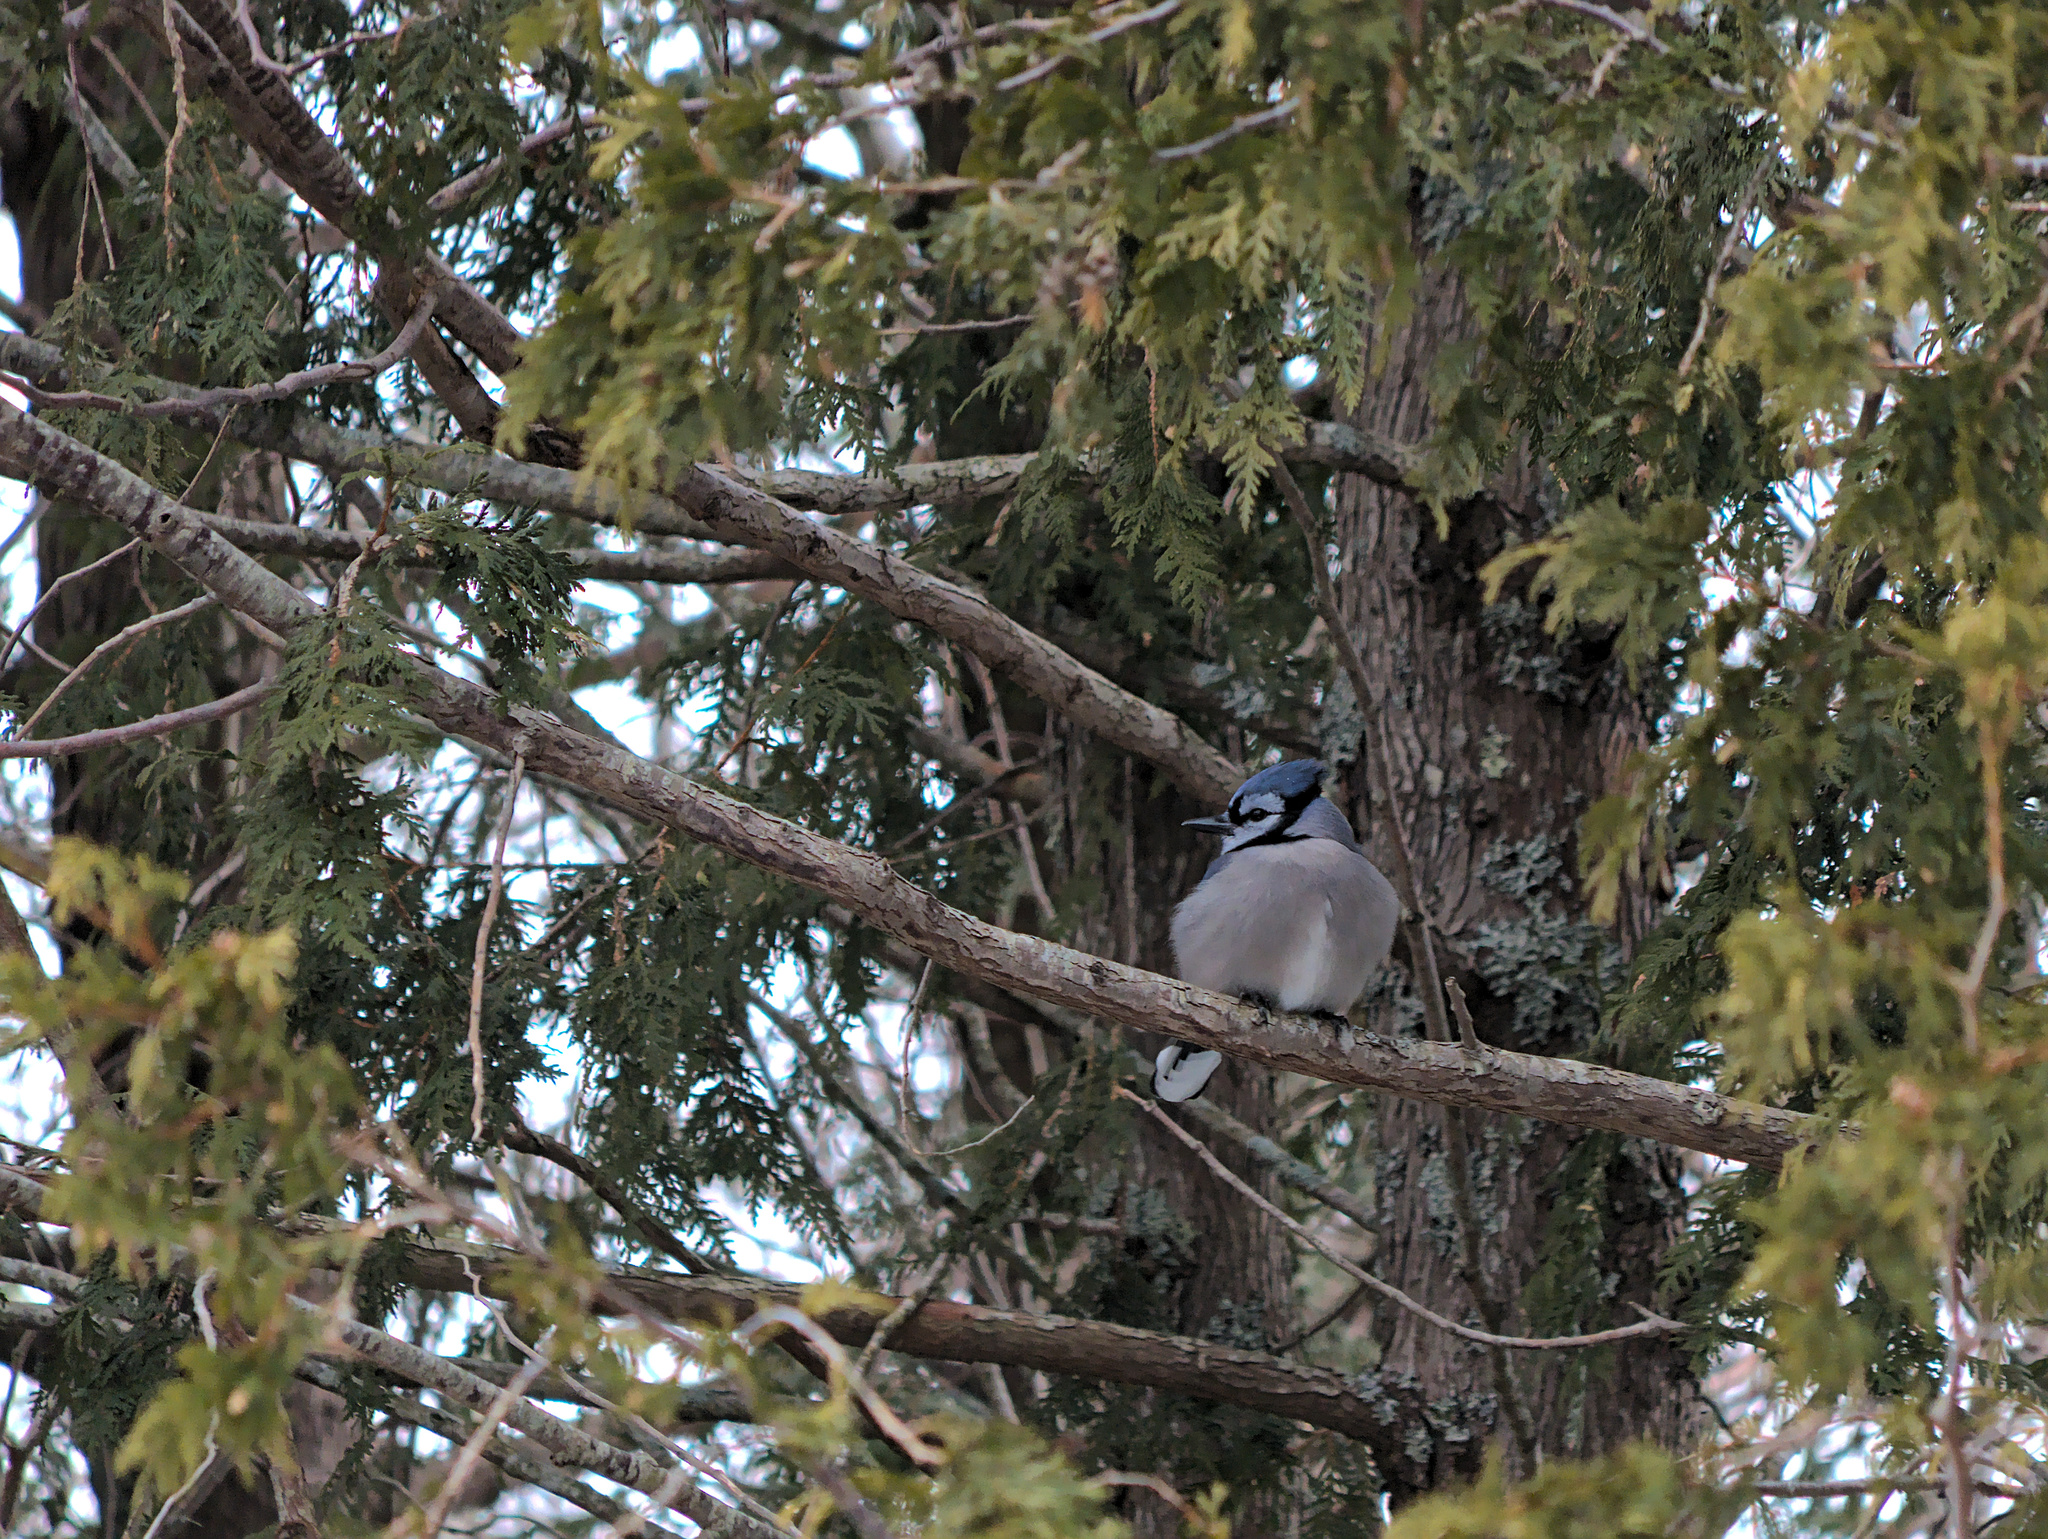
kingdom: Animalia
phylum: Chordata
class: Aves
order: Passeriformes
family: Corvidae
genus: Cyanocitta
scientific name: Cyanocitta cristata
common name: Blue jay
